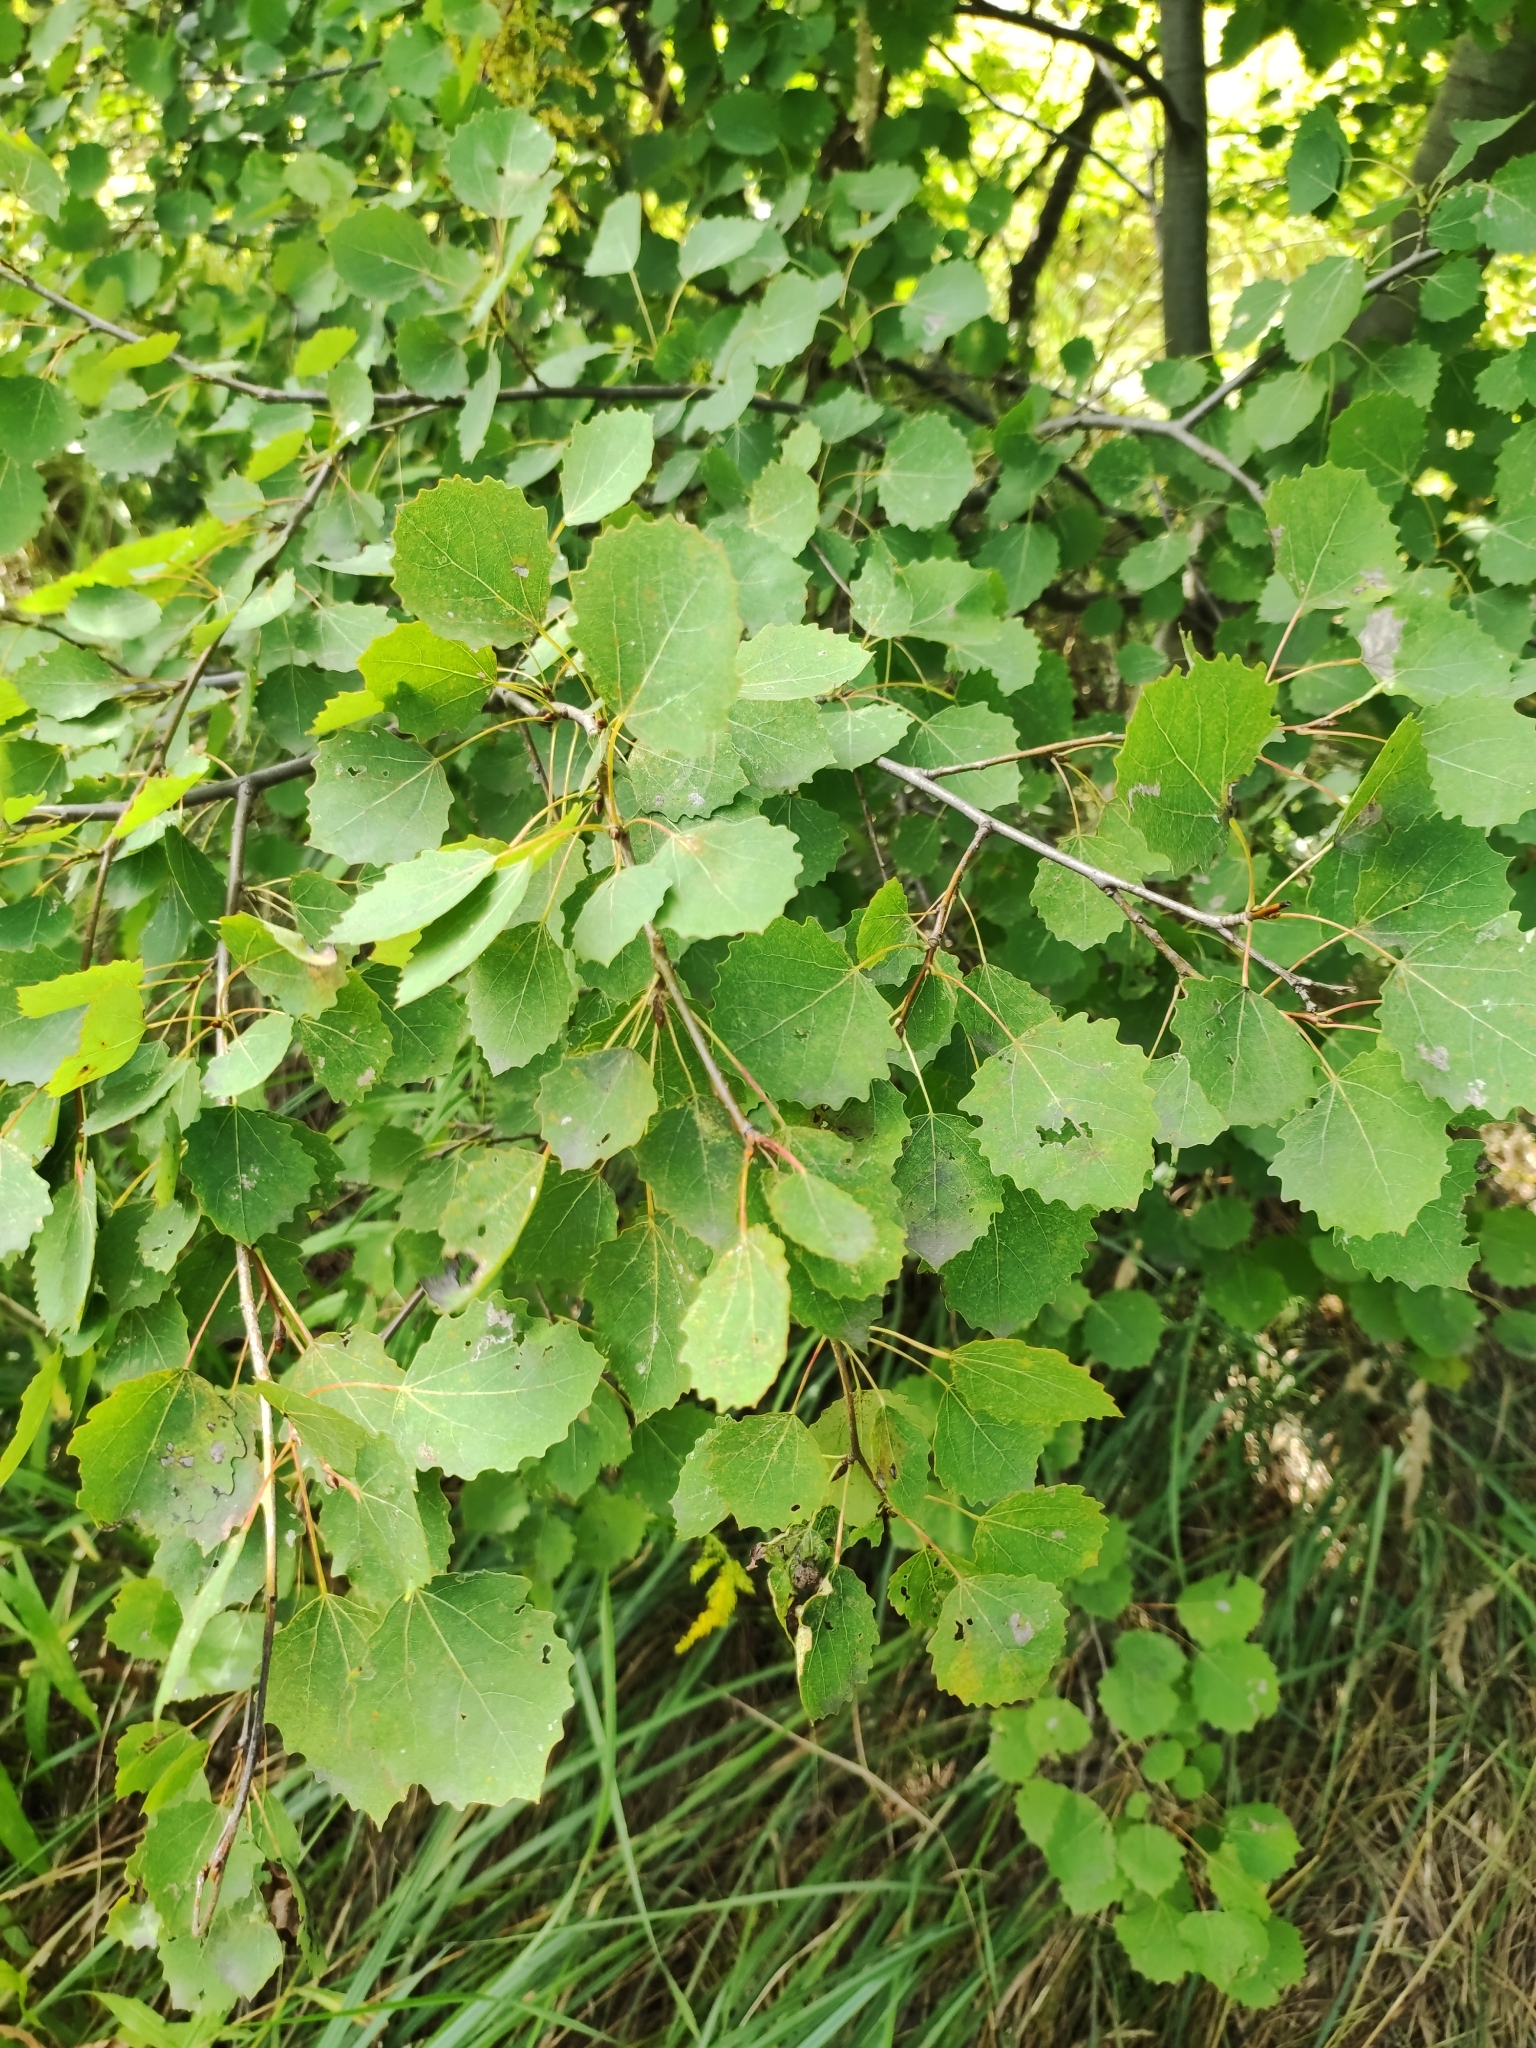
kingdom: Plantae
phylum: Tracheophyta
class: Magnoliopsida
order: Malpighiales
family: Salicaceae
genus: Populus
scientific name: Populus tremula
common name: European aspen
